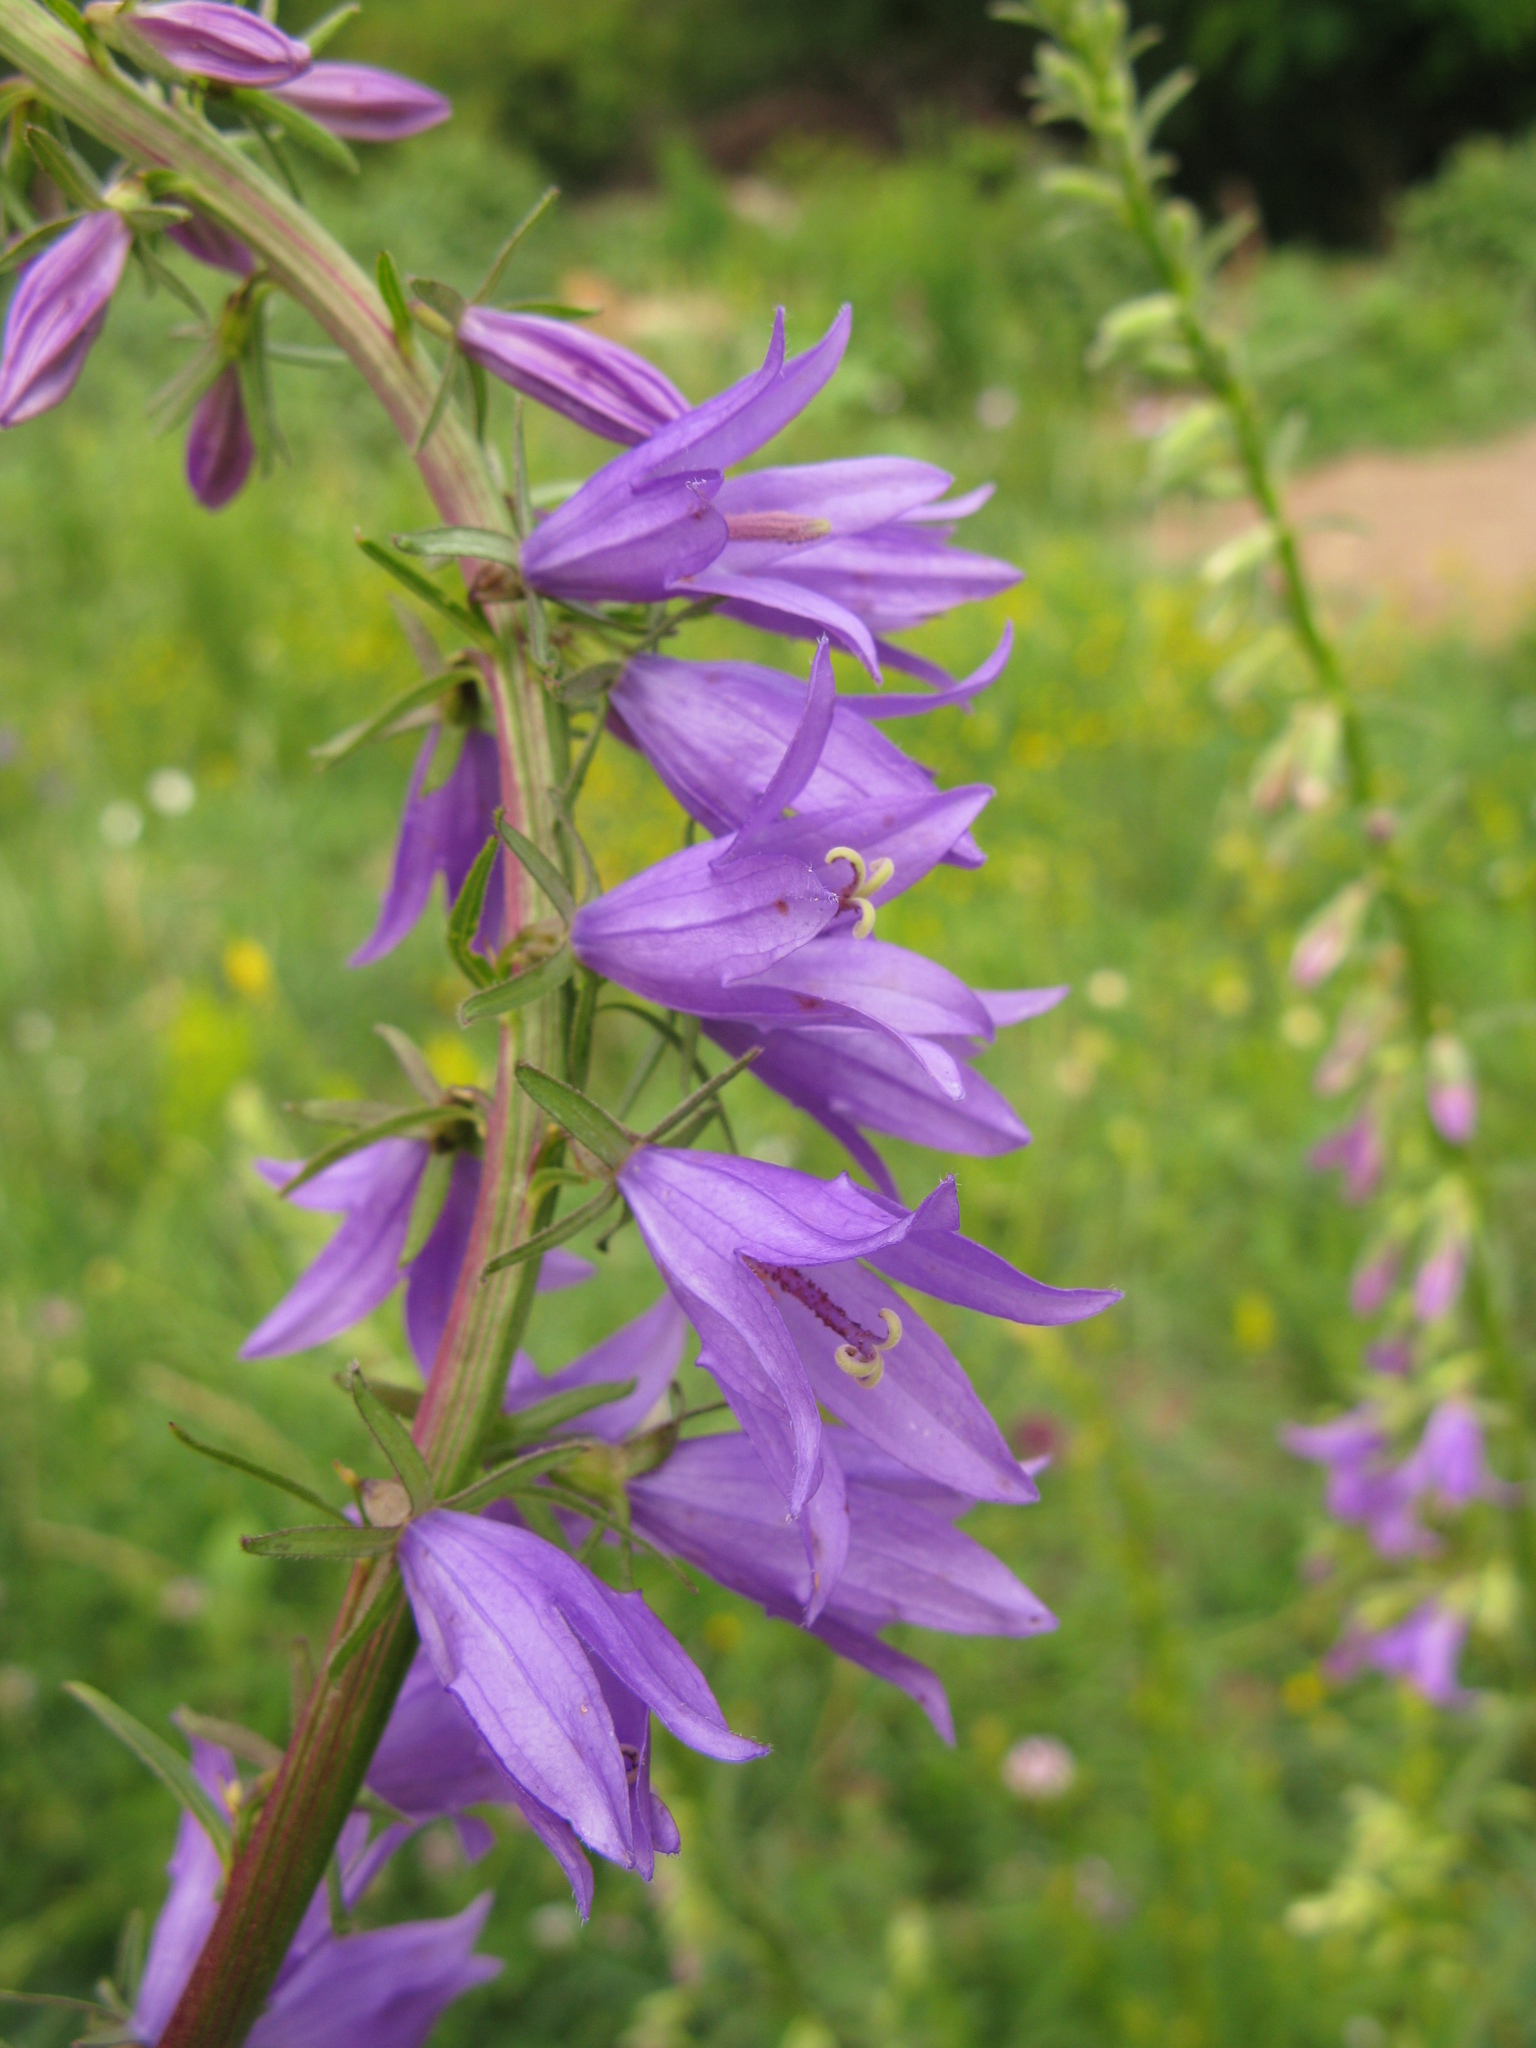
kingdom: Plantae
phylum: Tracheophyta
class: Magnoliopsida
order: Asterales
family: Campanulaceae
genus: Campanula
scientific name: Campanula rapunculoides
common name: Creeping bellflower
